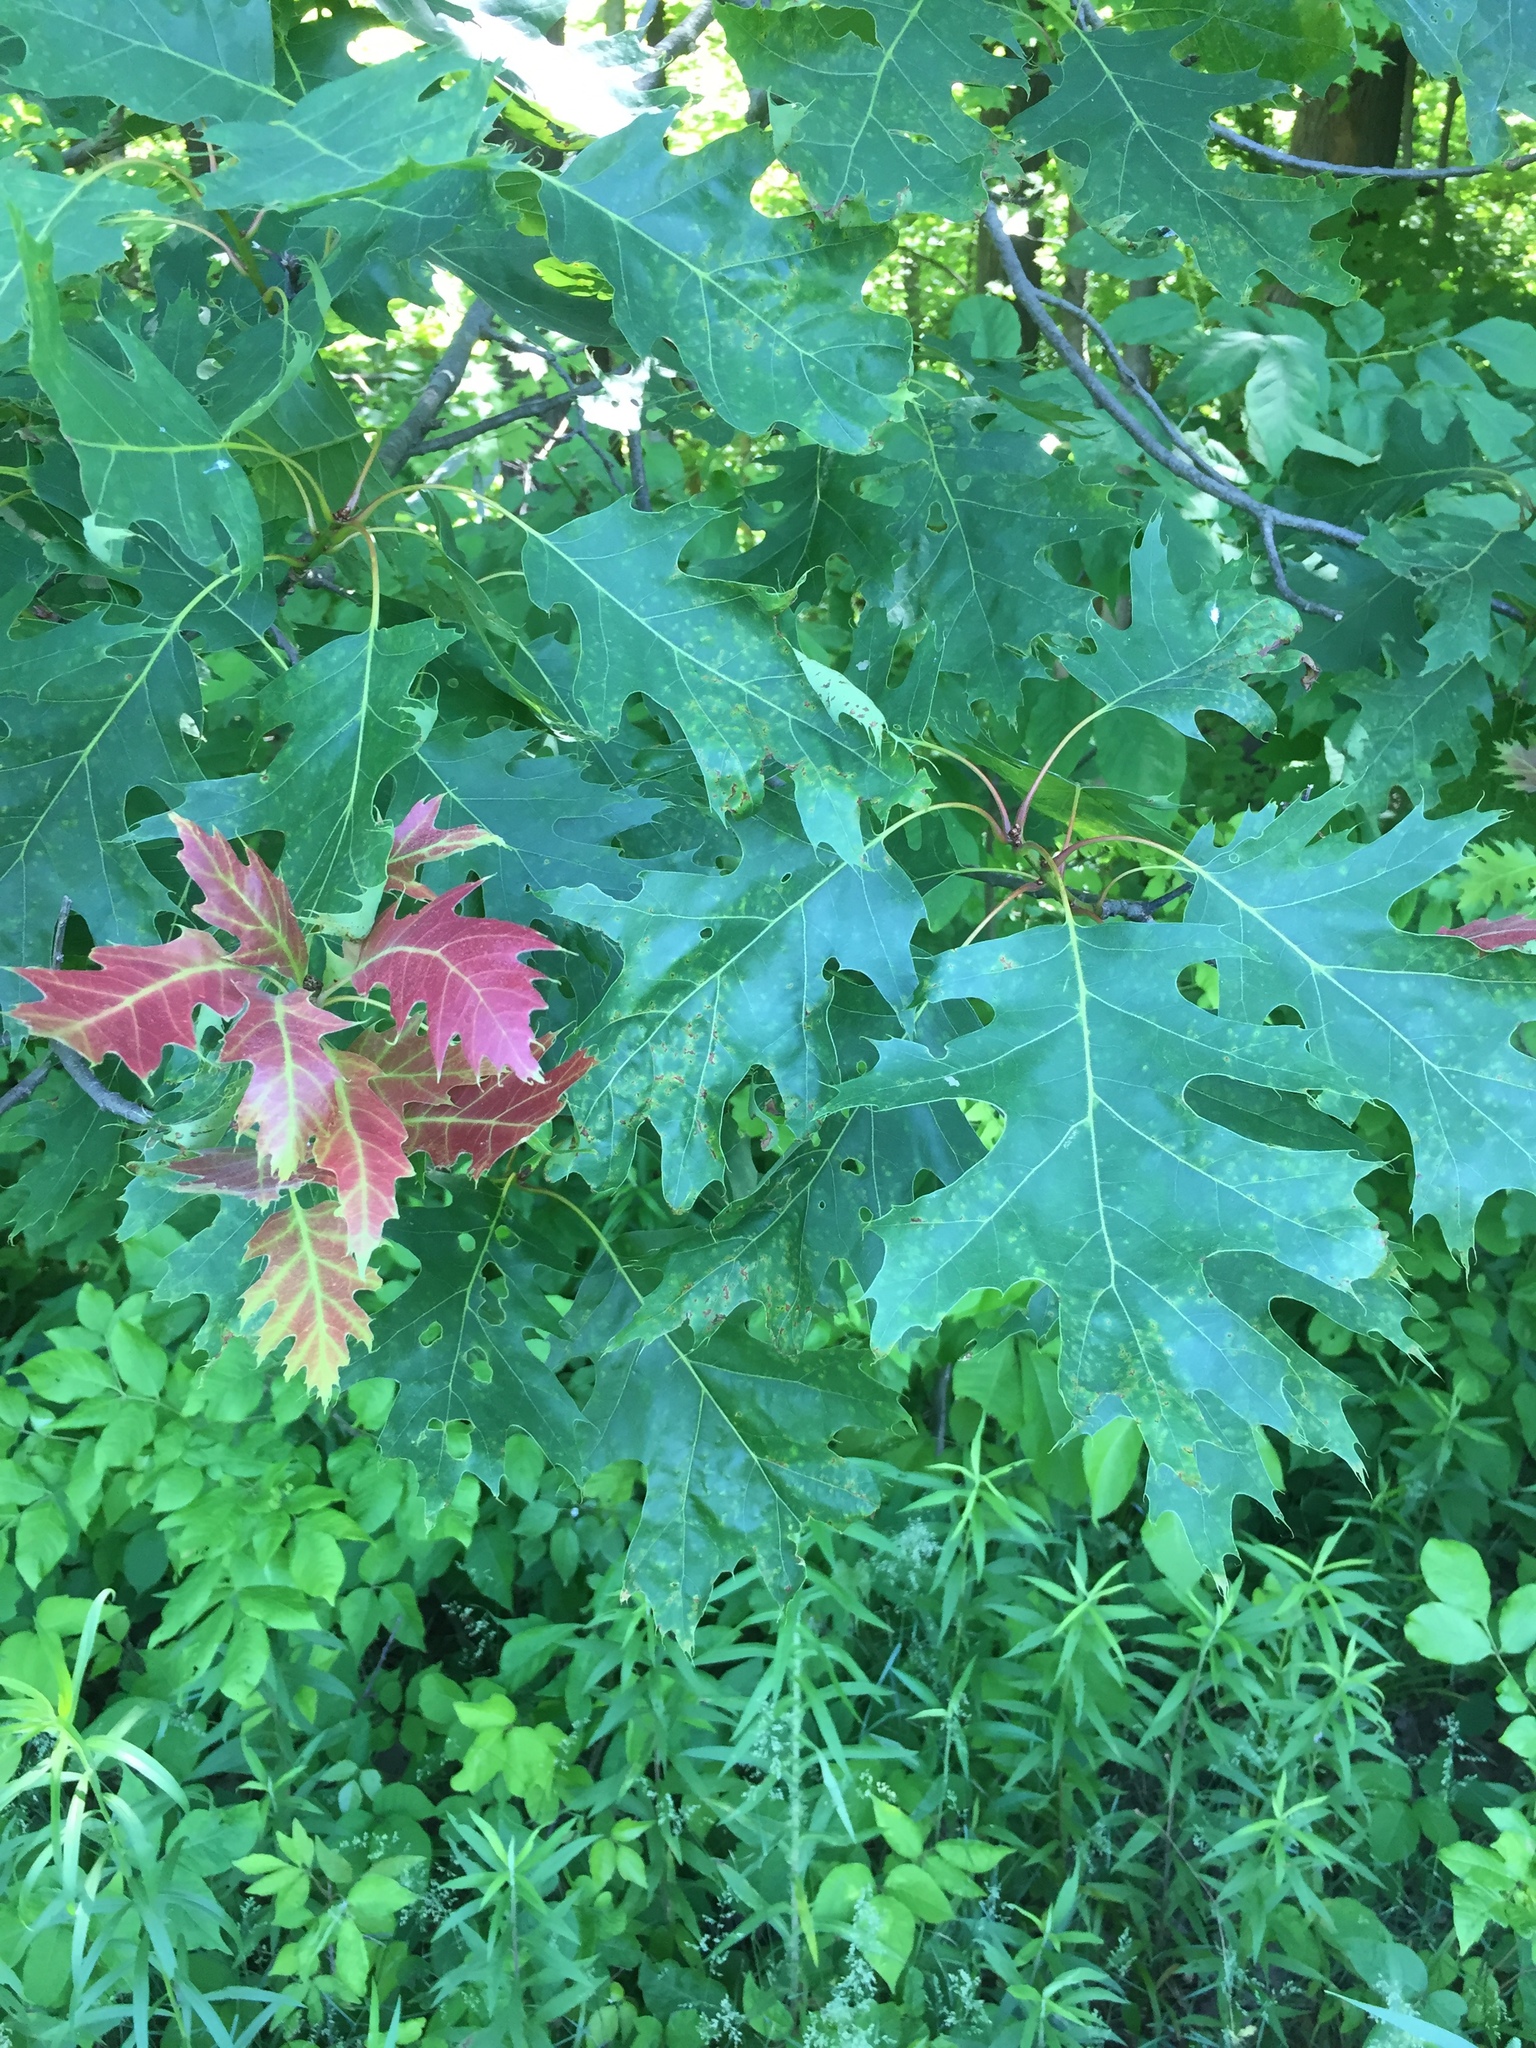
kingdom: Plantae
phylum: Tracheophyta
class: Magnoliopsida
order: Fagales
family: Fagaceae
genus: Quercus
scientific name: Quercus rubra
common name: Red oak
